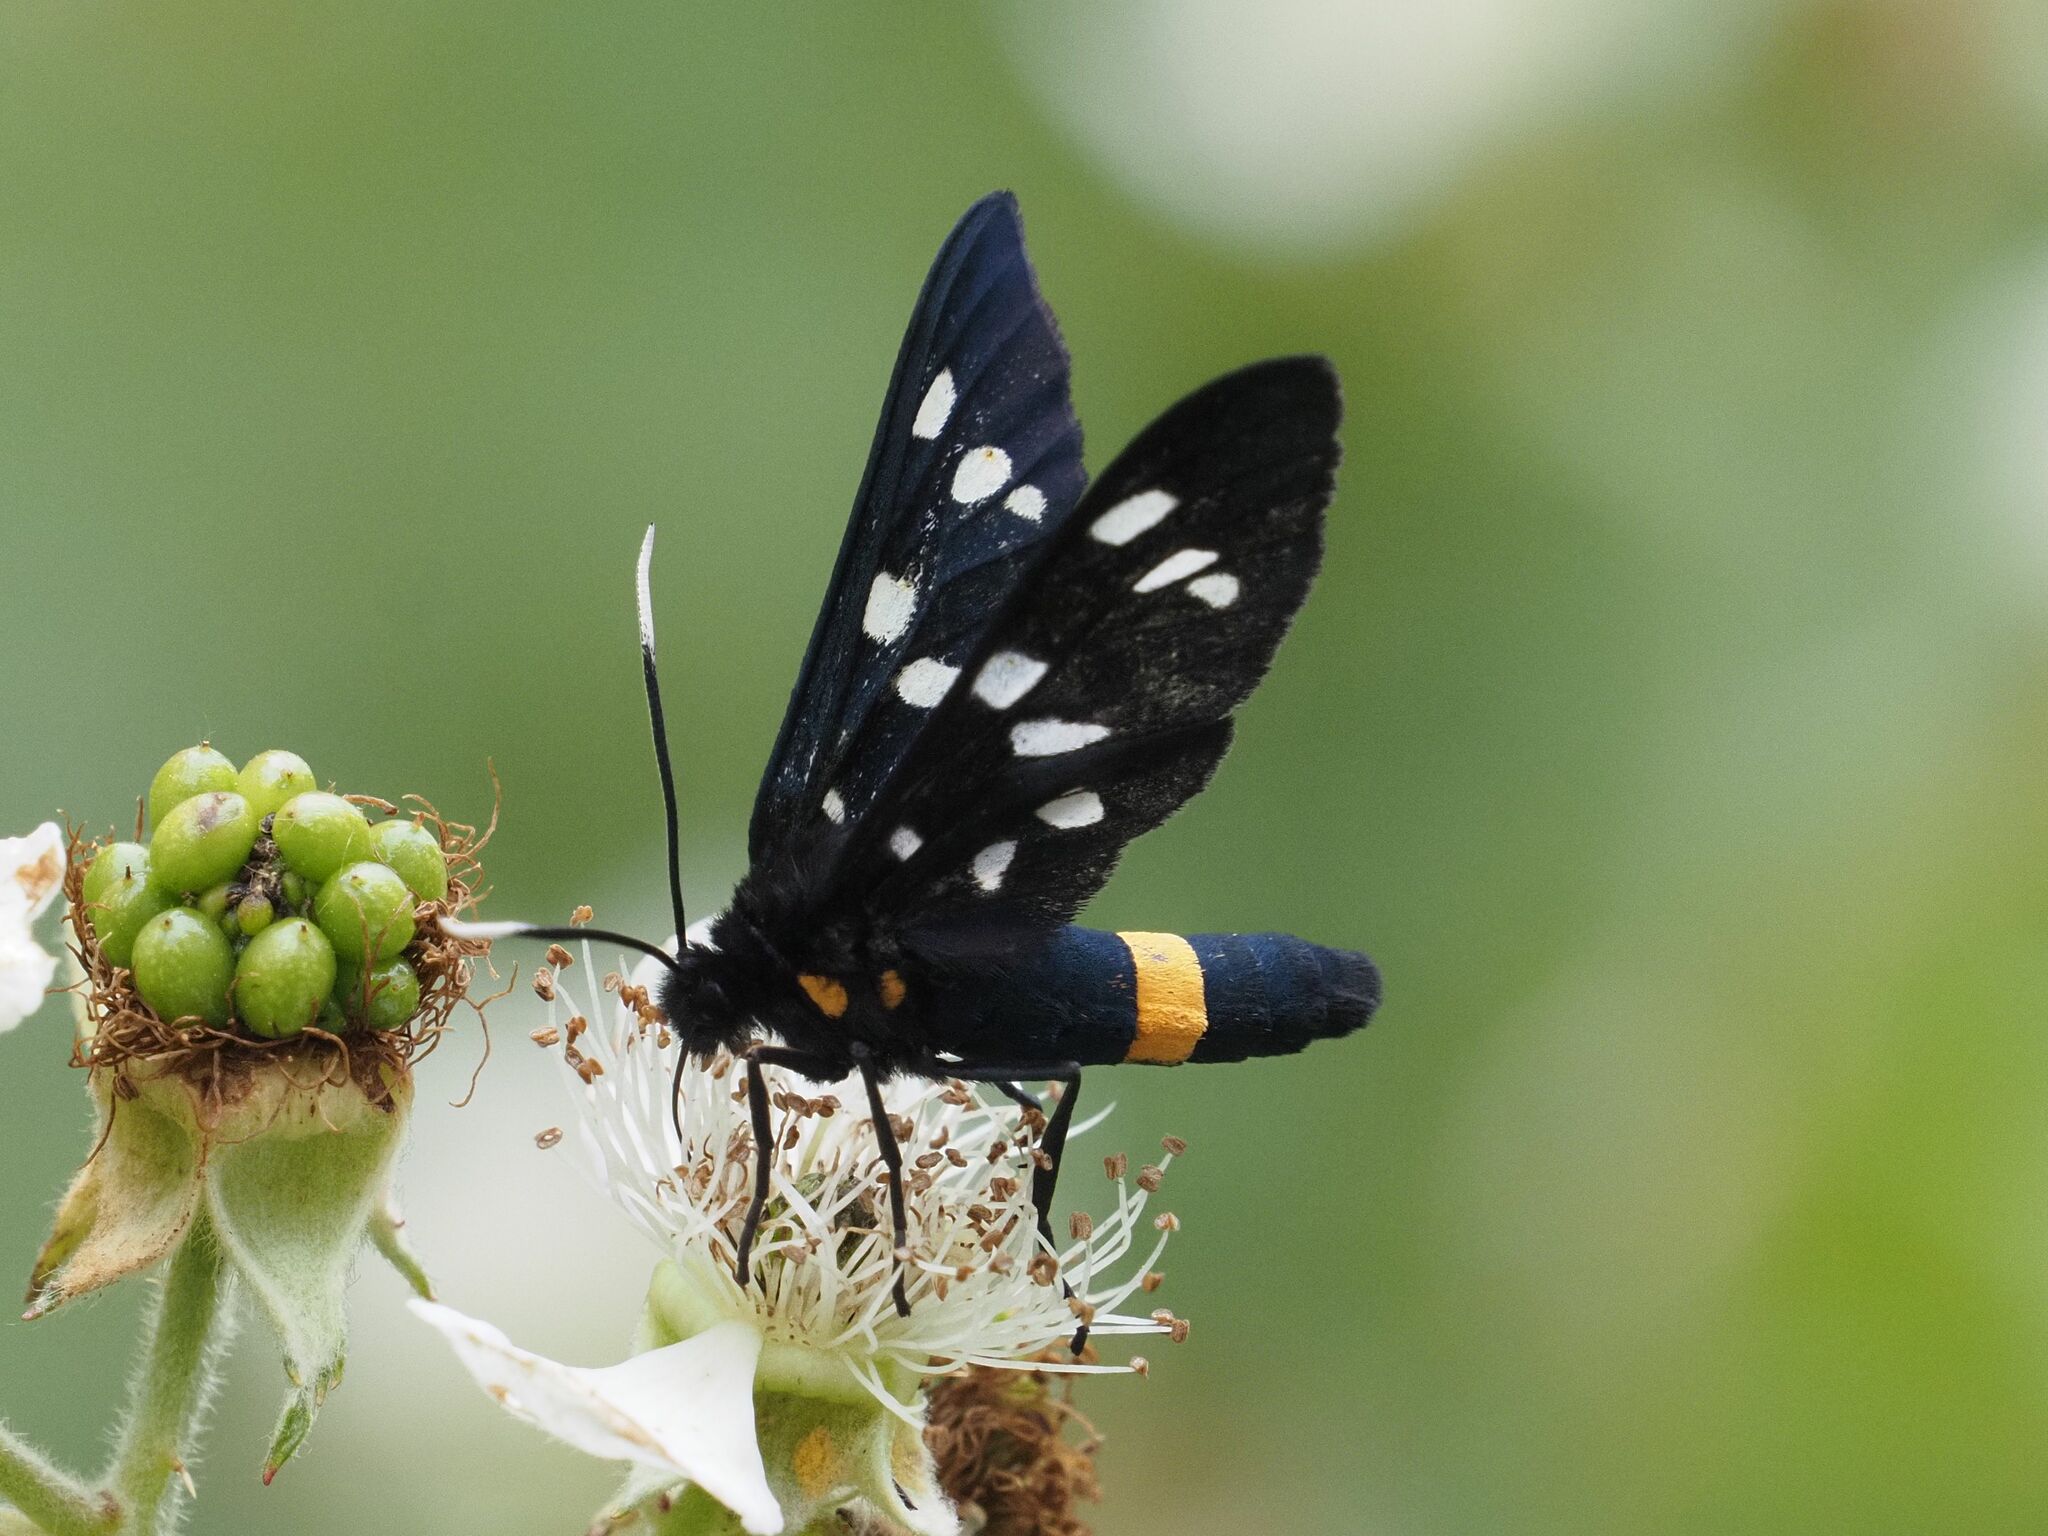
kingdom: Animalia
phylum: Arthropoda
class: Insecta
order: Lepidoptera
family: Erebidae
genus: Amata
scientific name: Amata phegea
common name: Nine-spotted
